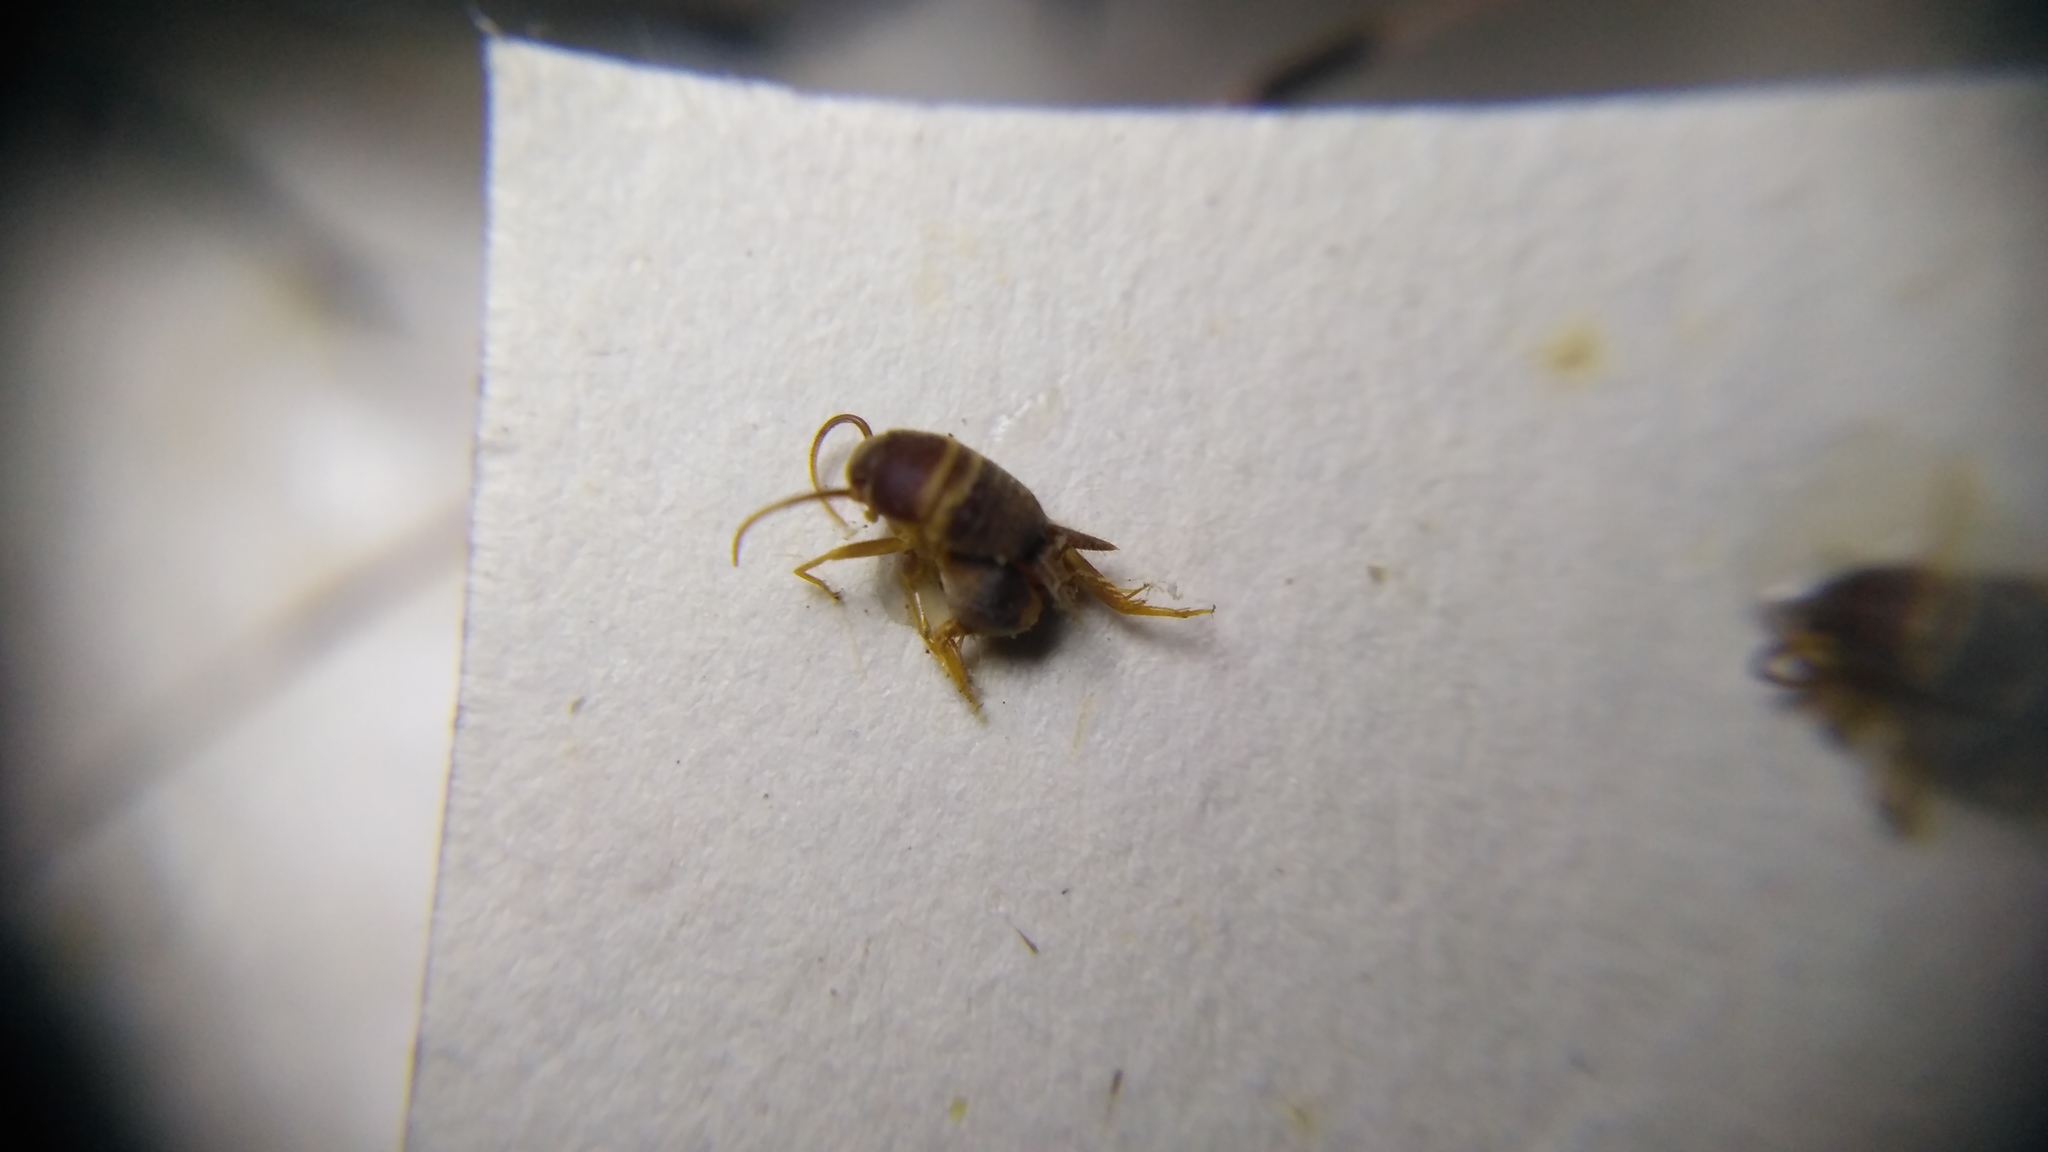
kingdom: Animalia
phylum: Arthropoda
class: Insecta
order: Orthoptera
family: Myrmecophilidae
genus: Myrmecophilus
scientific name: Myrmecophilus acervorum
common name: Ants-nest cricket
